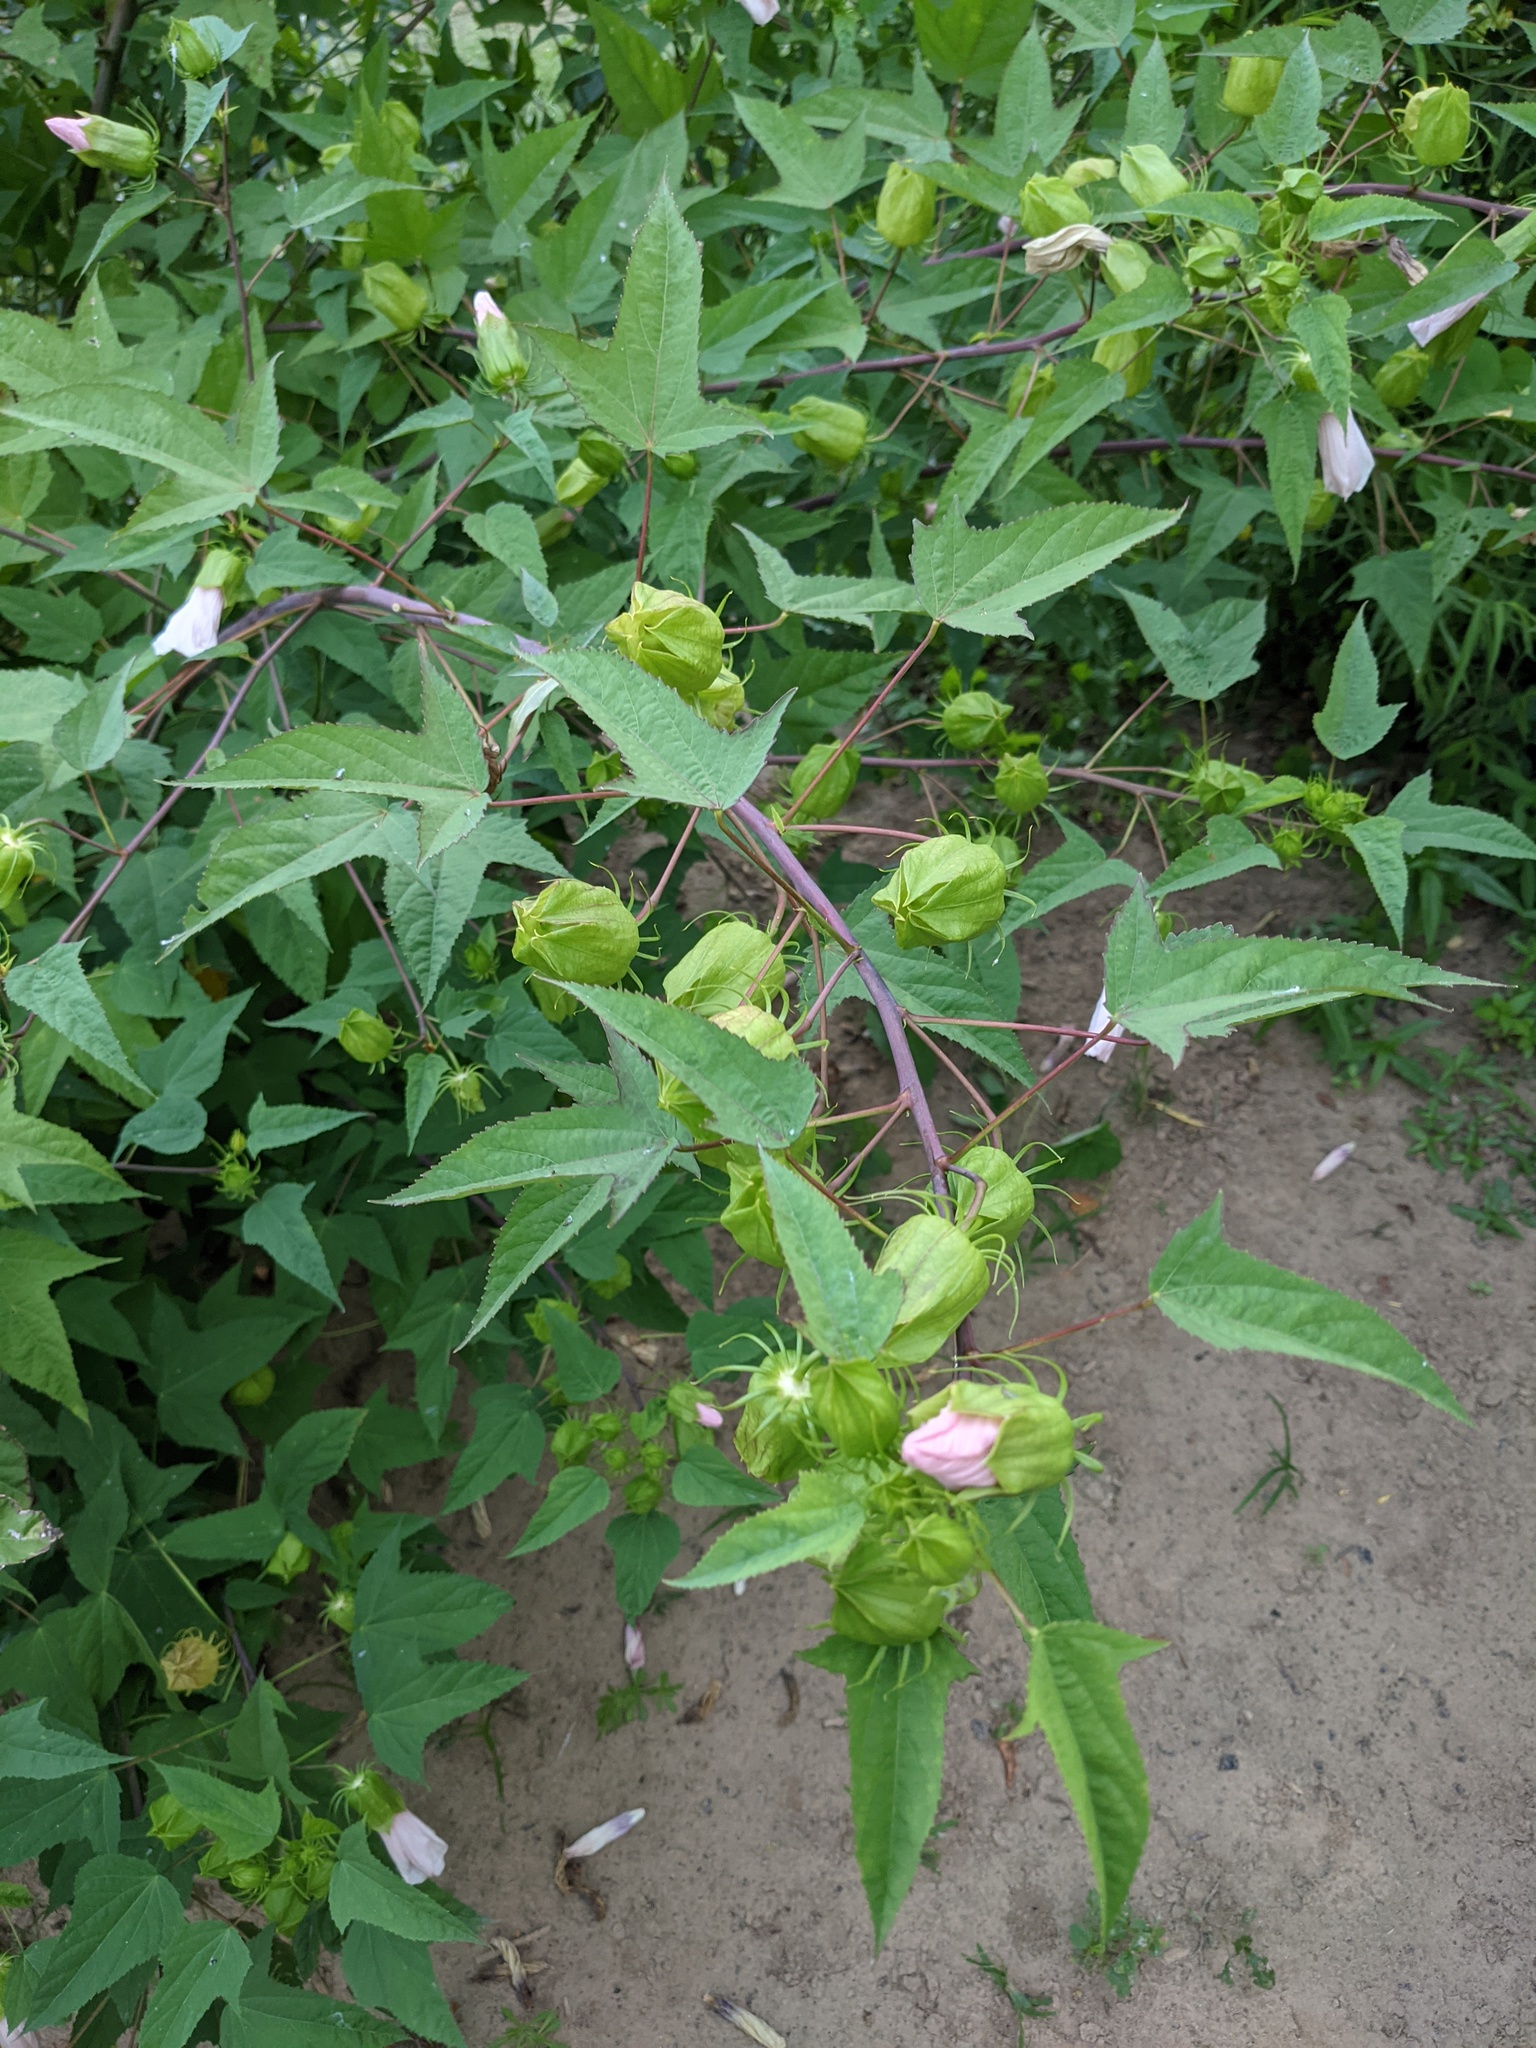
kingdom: Plantae
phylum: Tracheophyta
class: Magnoliopsida
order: Malvales
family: Malvaceae
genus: Hibiscus
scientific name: Hibiscus laevis
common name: Scarlet rose-mallow
